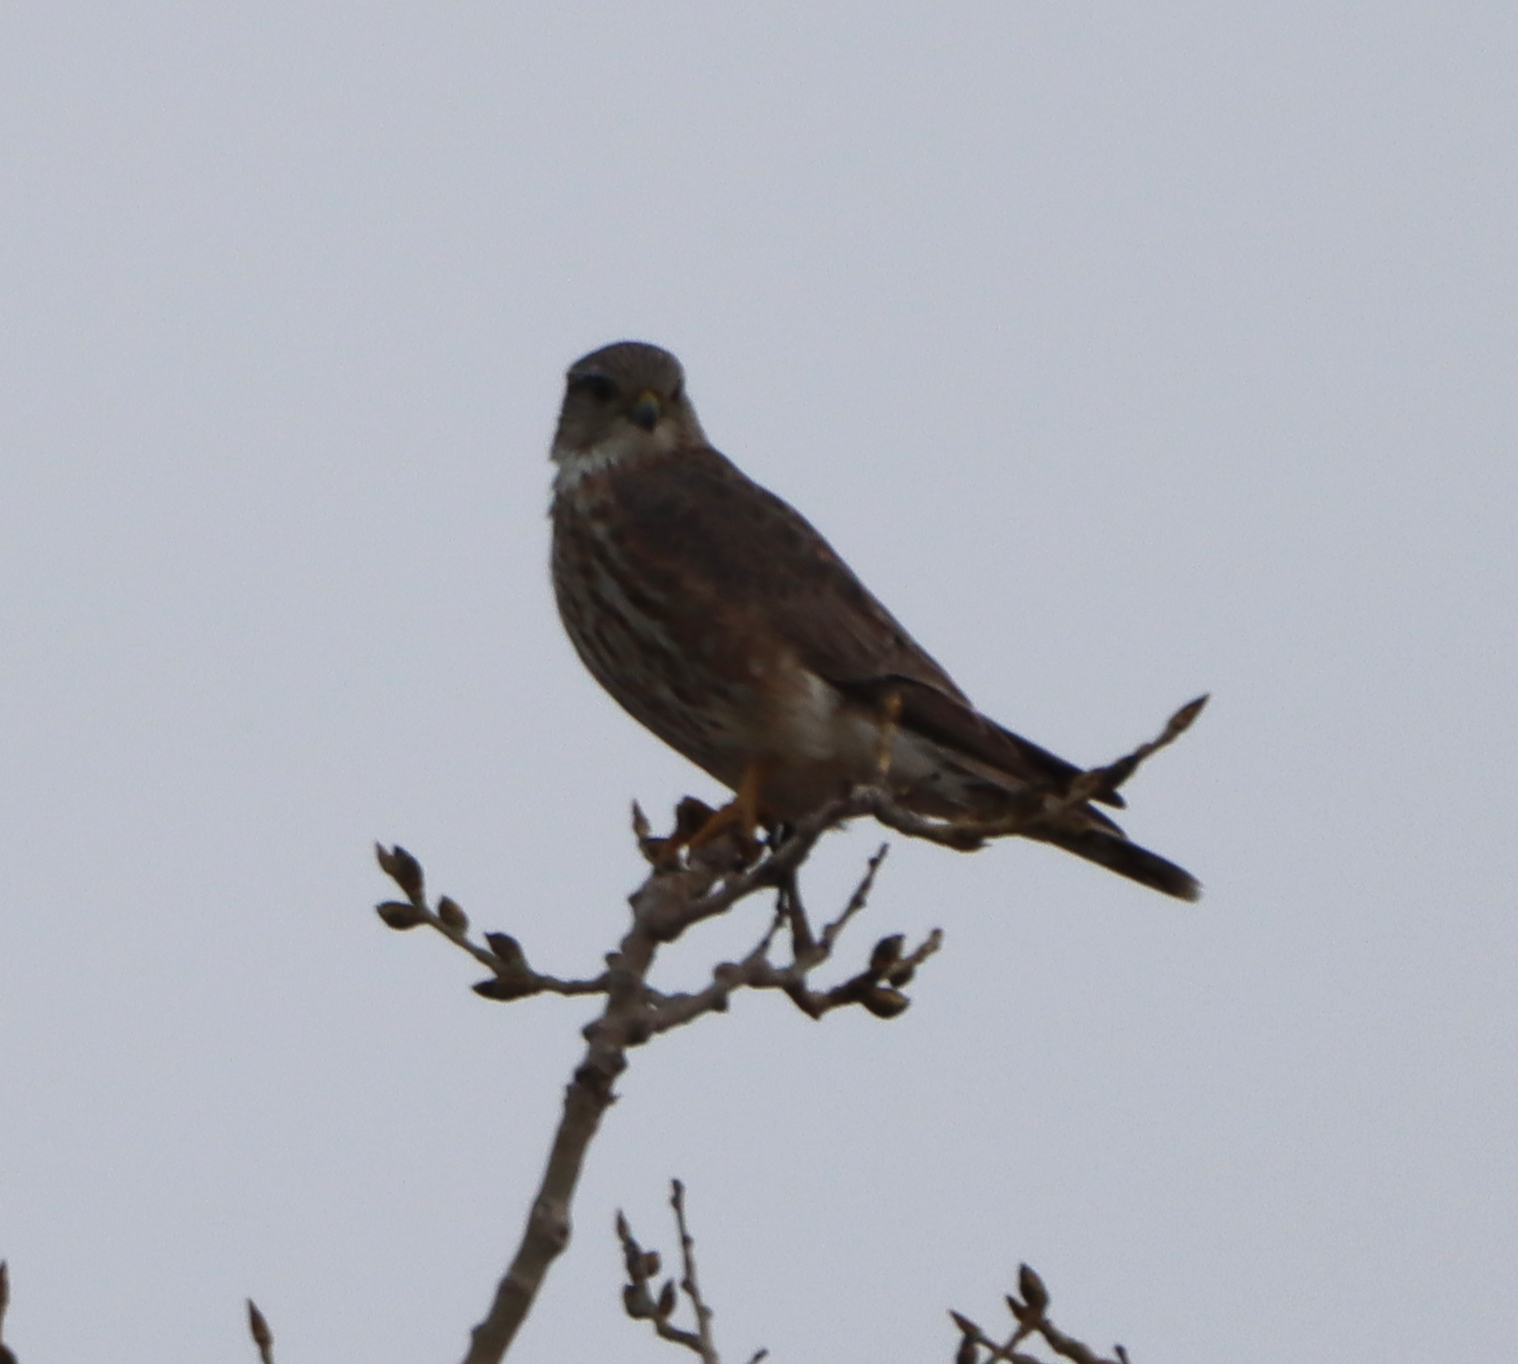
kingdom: Animalia
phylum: Chordata
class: Aves
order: Falconiformes
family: Falconidae
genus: Falco
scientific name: Falco columbarius
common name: Merlin
